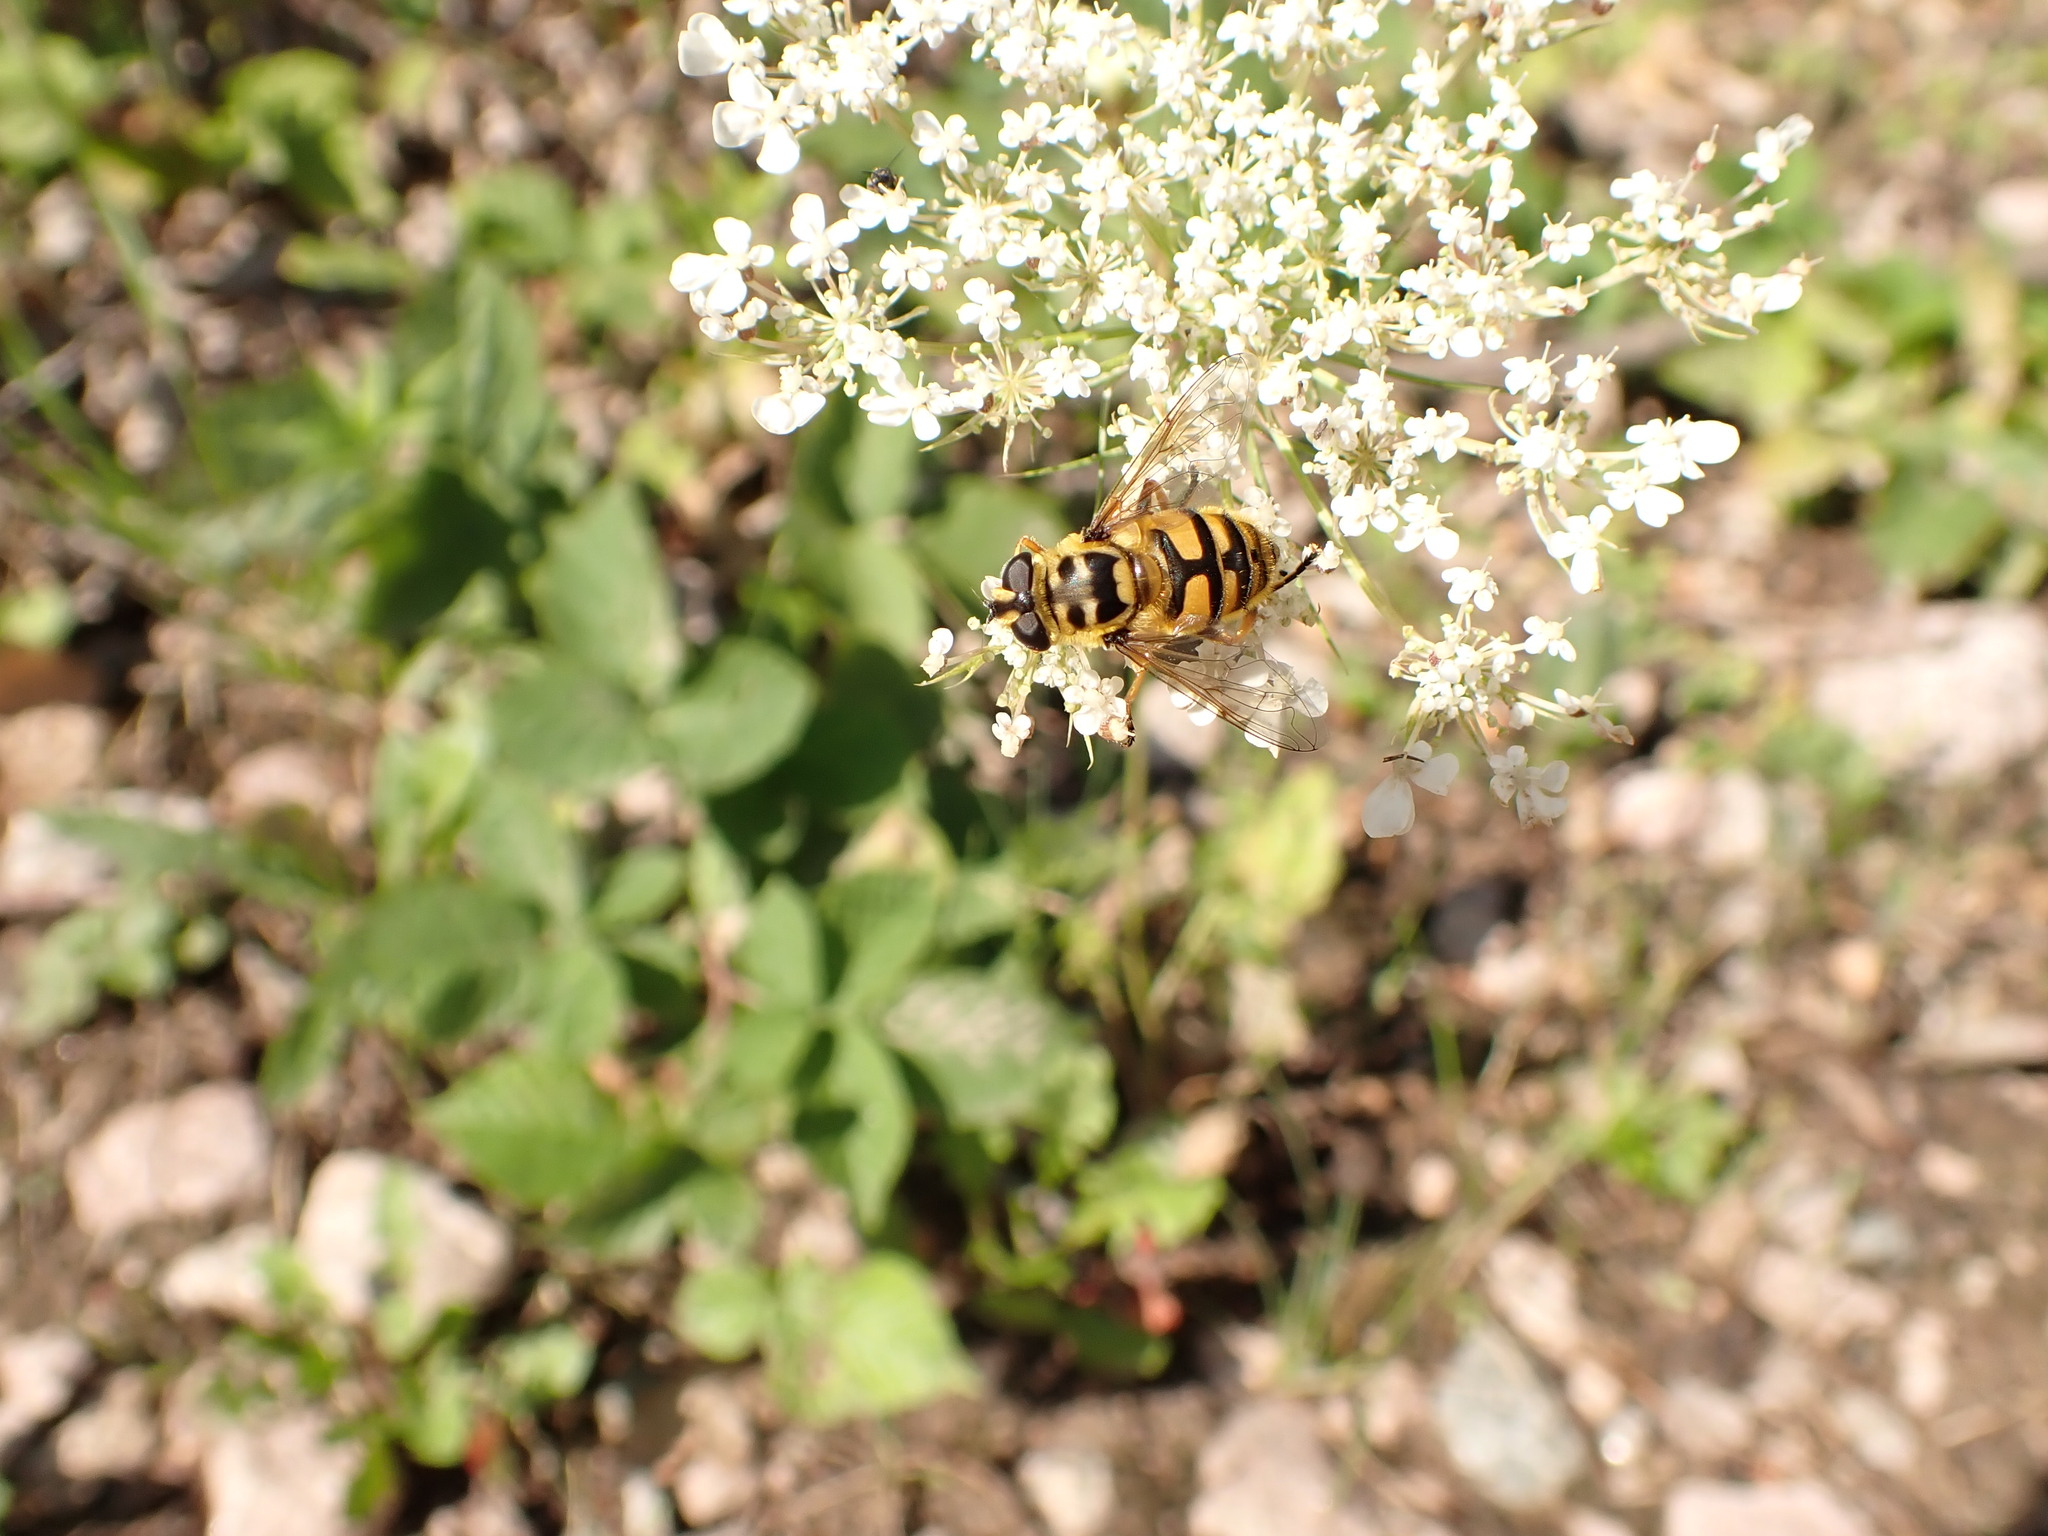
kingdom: Animalia
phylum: Arthropoda
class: Insecta
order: Diptera
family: Syrphidae
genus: Myathropa
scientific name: Myathropa florea
